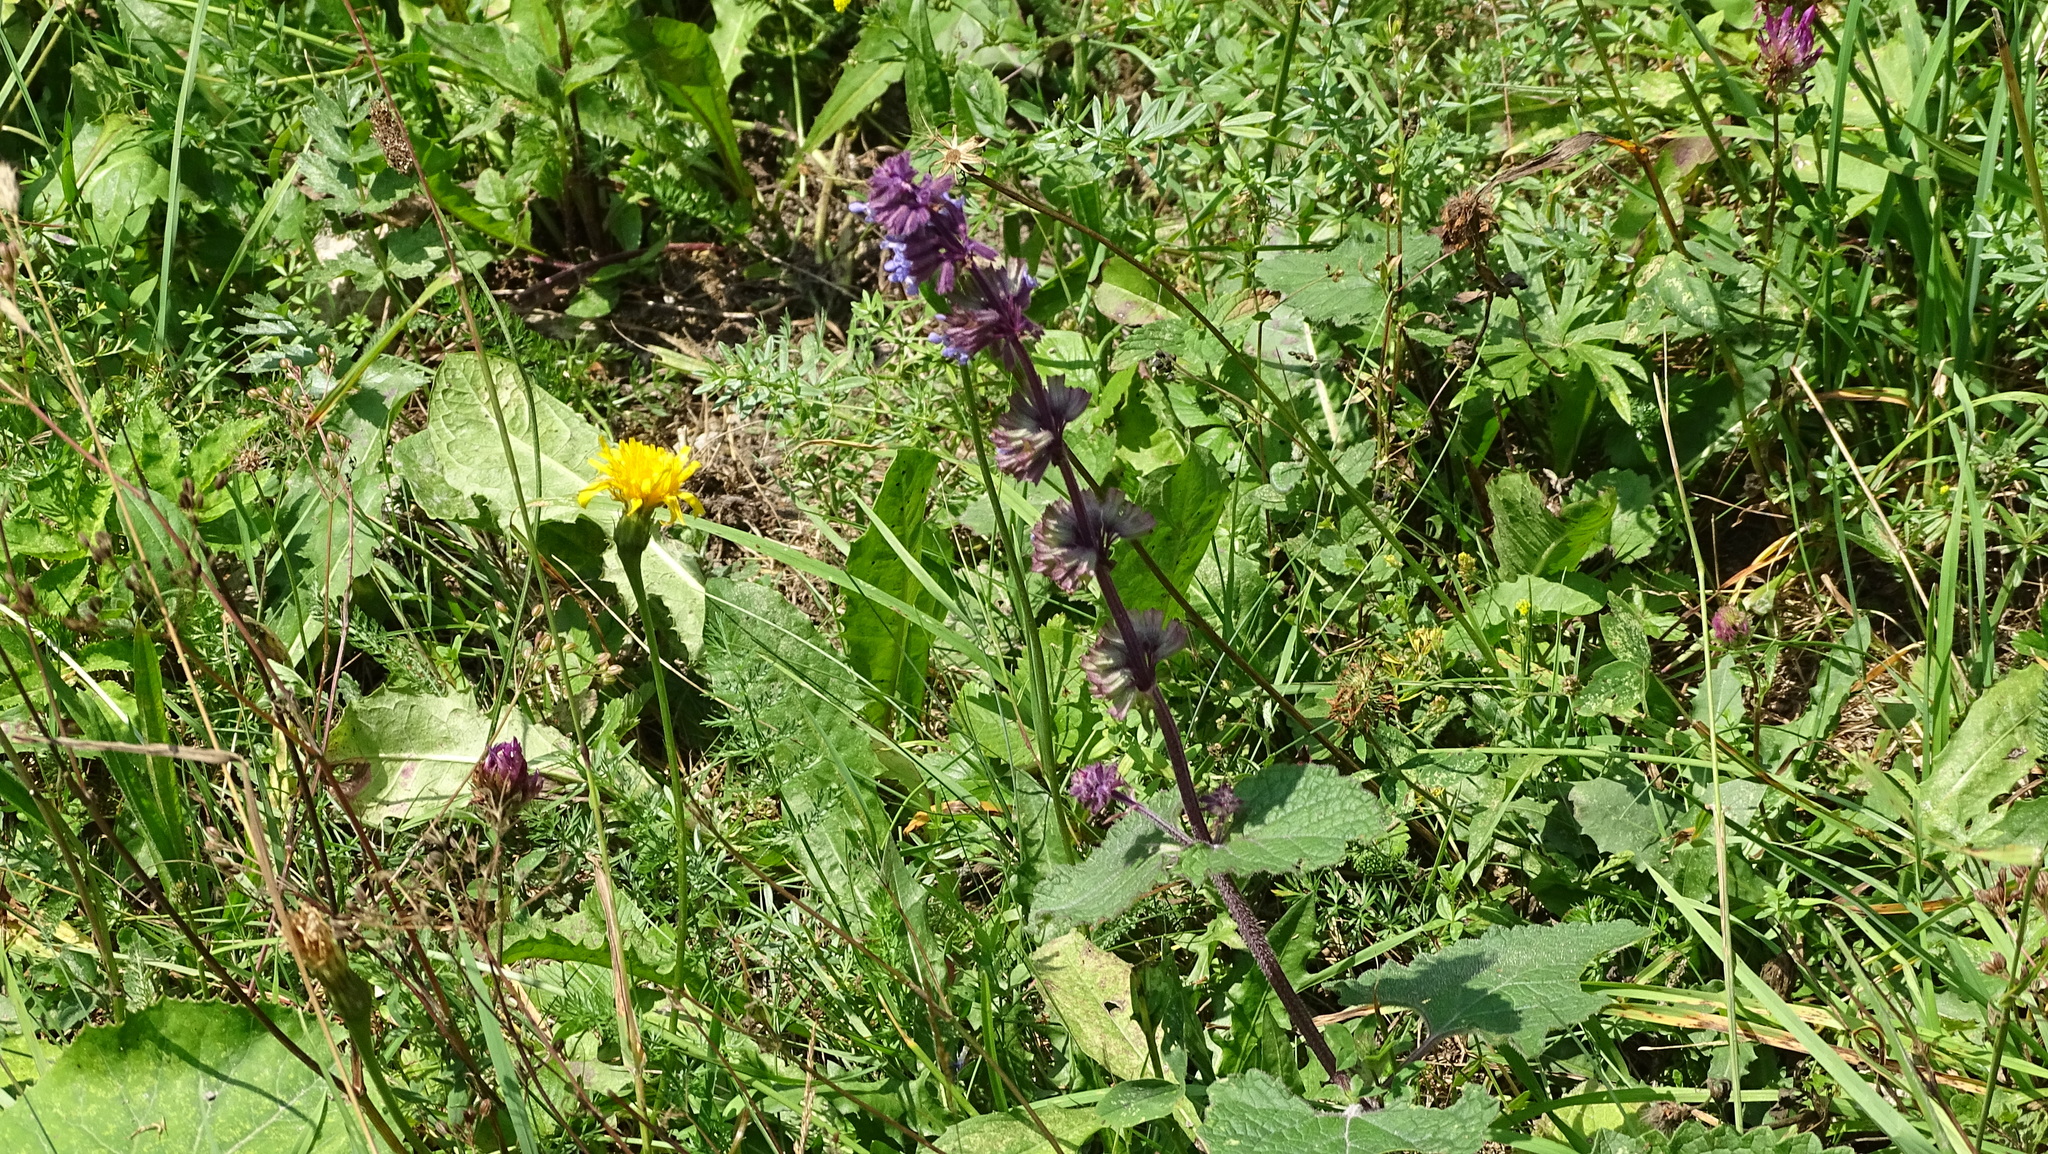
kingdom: Plantae
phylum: Tracheophyta
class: Magnoliopsida
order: Lamiales
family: Lamiaceae
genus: Salvia
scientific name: Salvia verticillata
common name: Whorled clary
